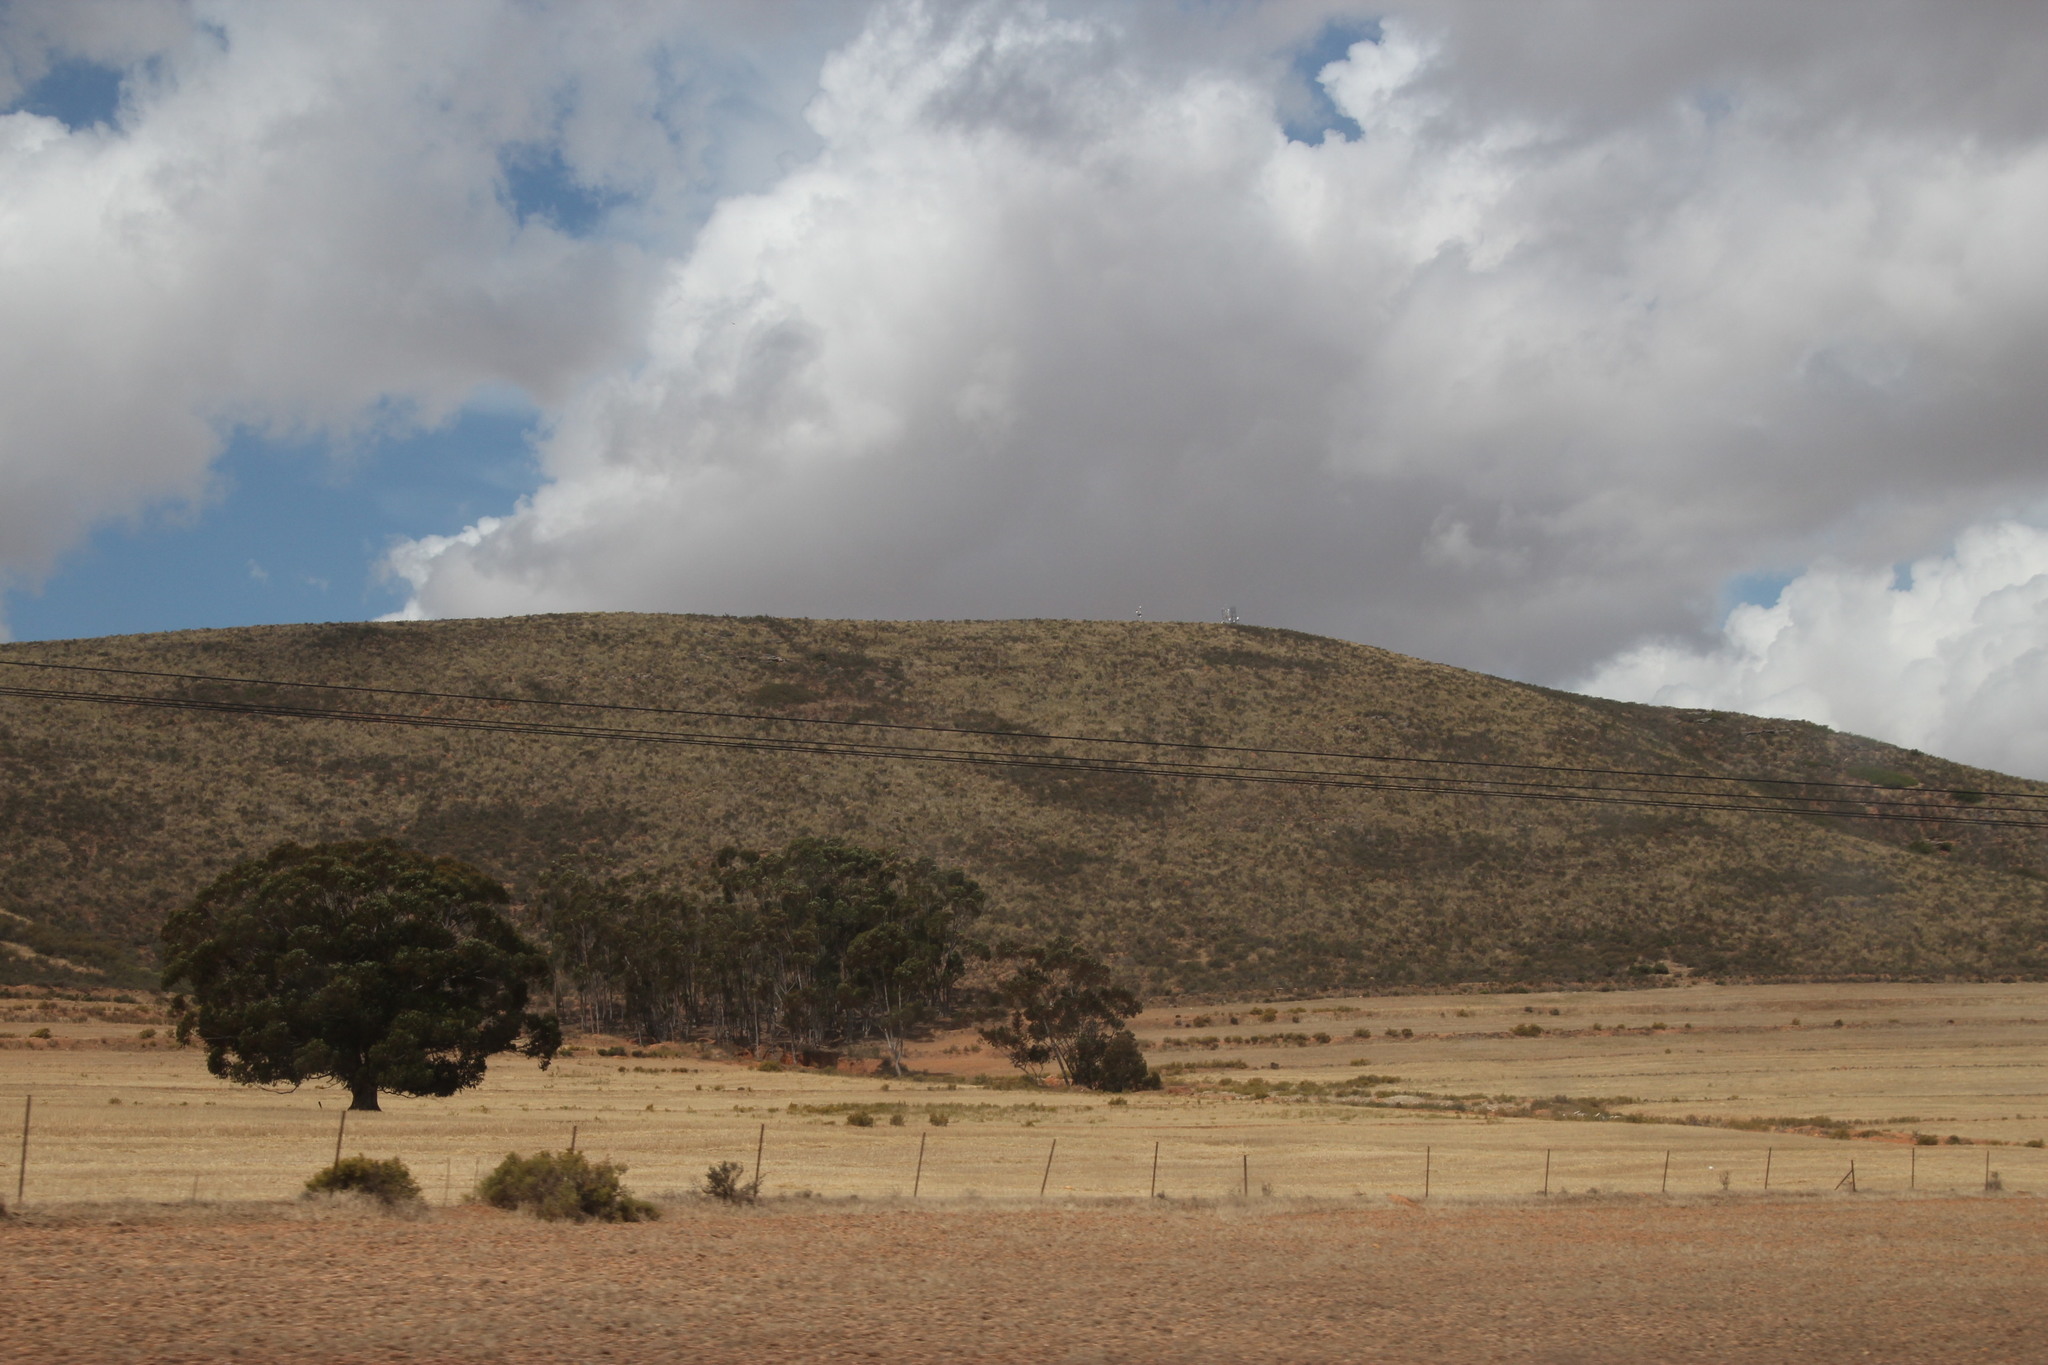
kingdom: Animalia
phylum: Arthropoda
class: Insecta
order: Blattodea
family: Hodotermitidae
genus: Microhodotermes
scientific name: Microhodotermes viator
